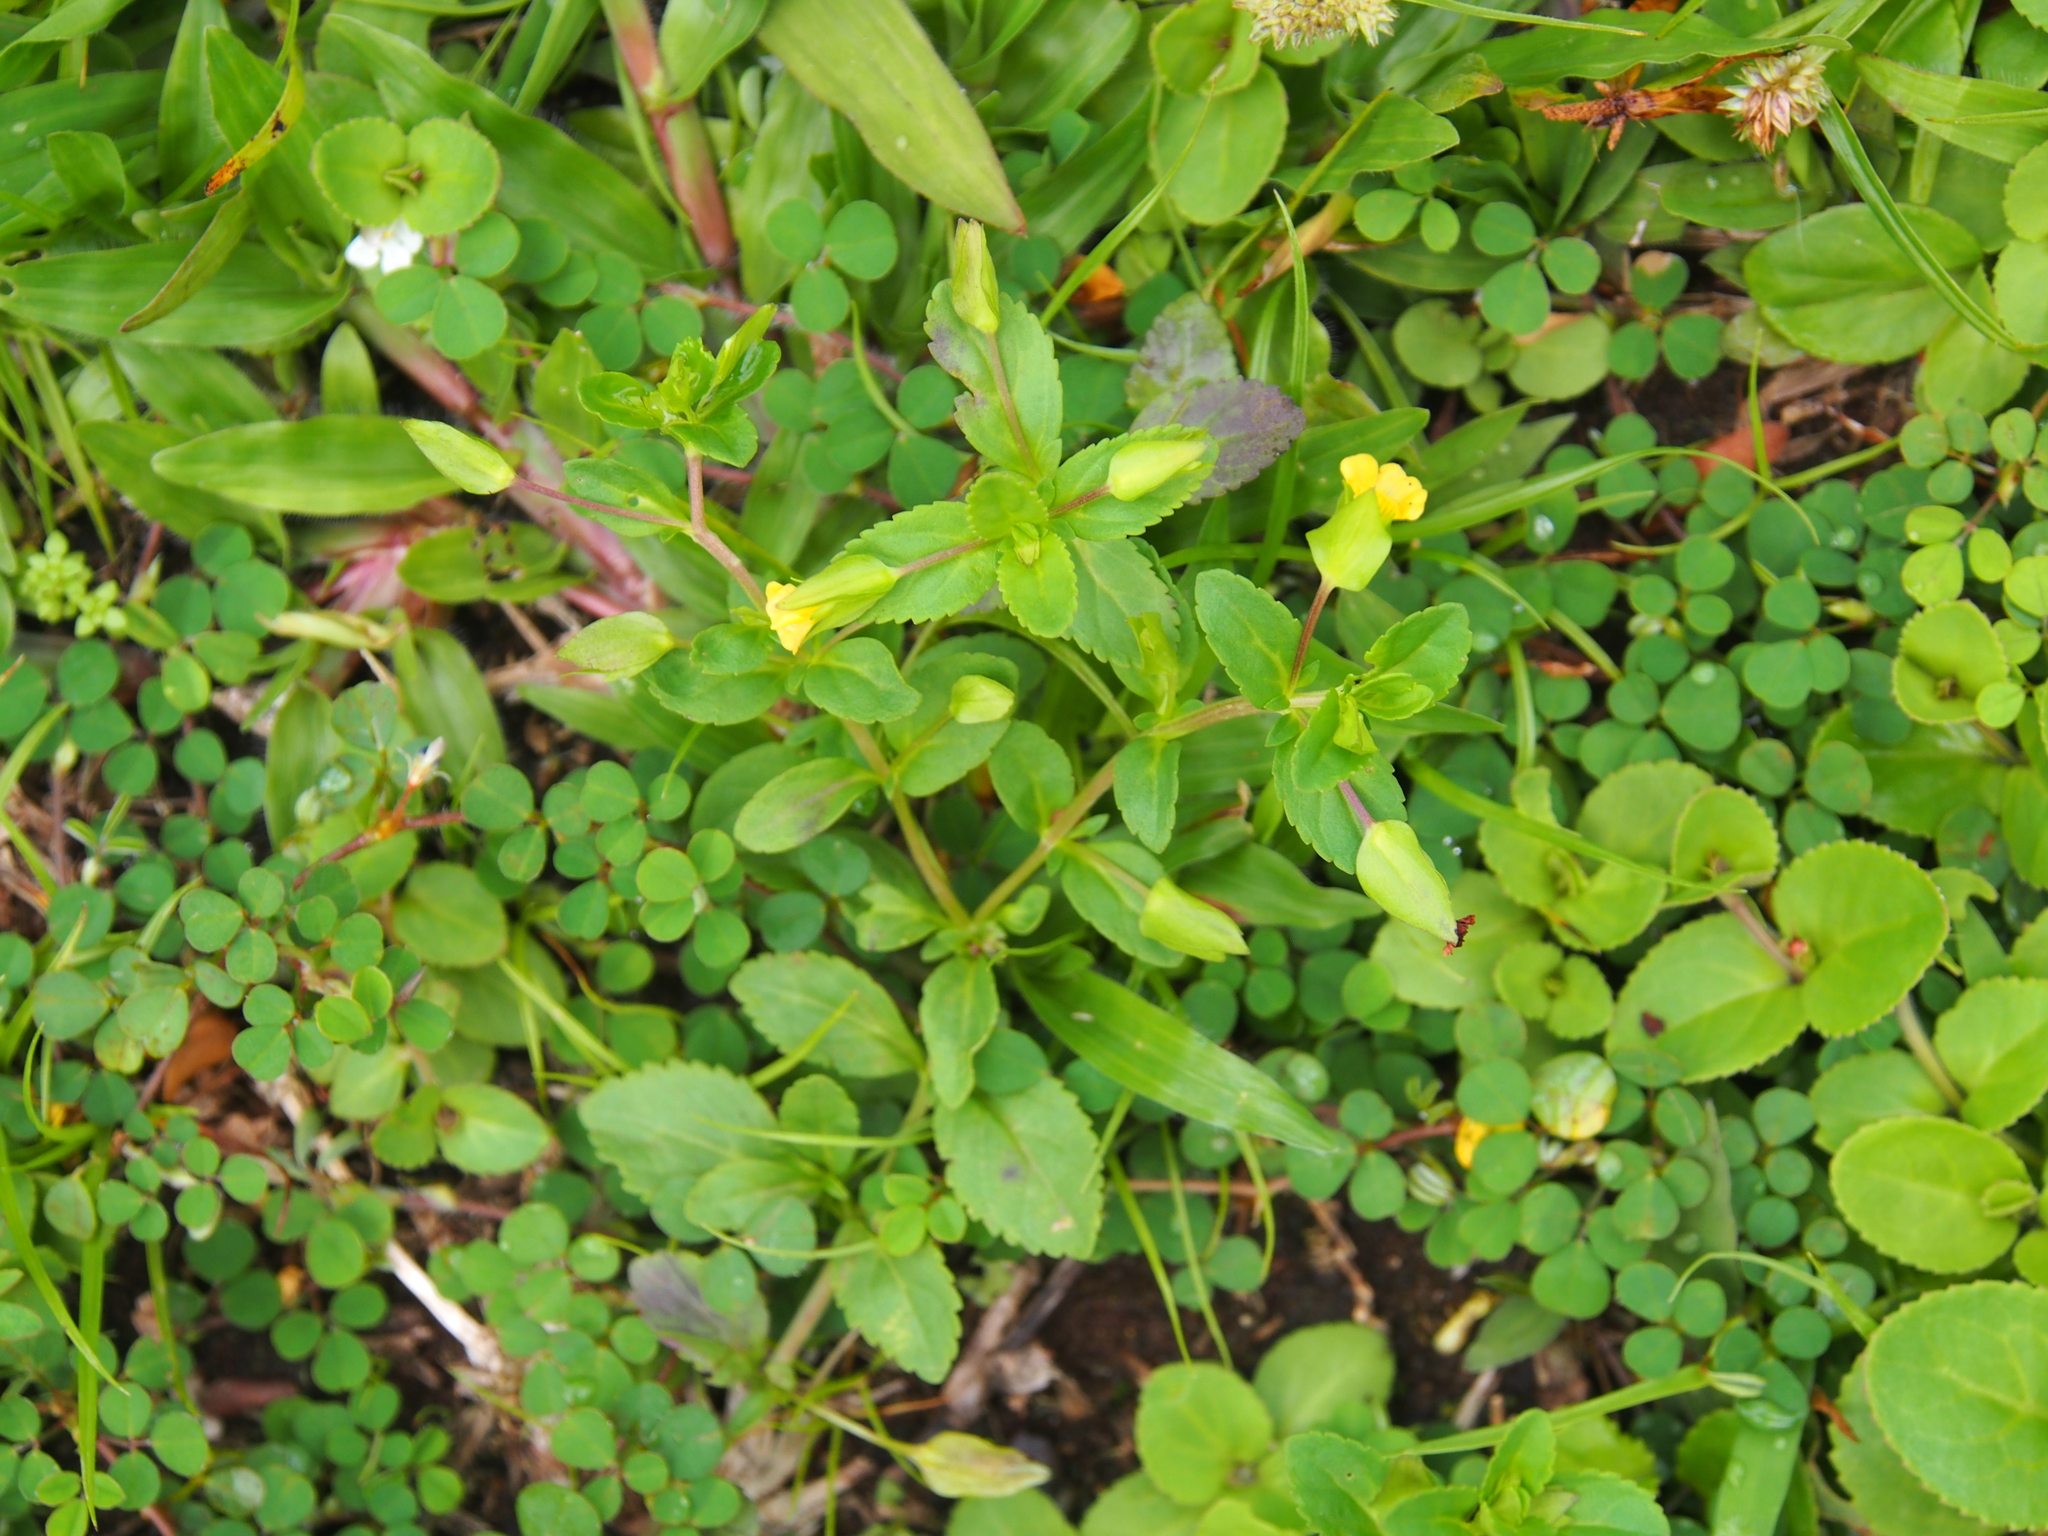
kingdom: Plantae
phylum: Tracheophyta
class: Magnoliopsida
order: Lamiales
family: Plantaginaceae
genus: Mecardonia
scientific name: Mecardonia procumbens
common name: Baby jump-up
